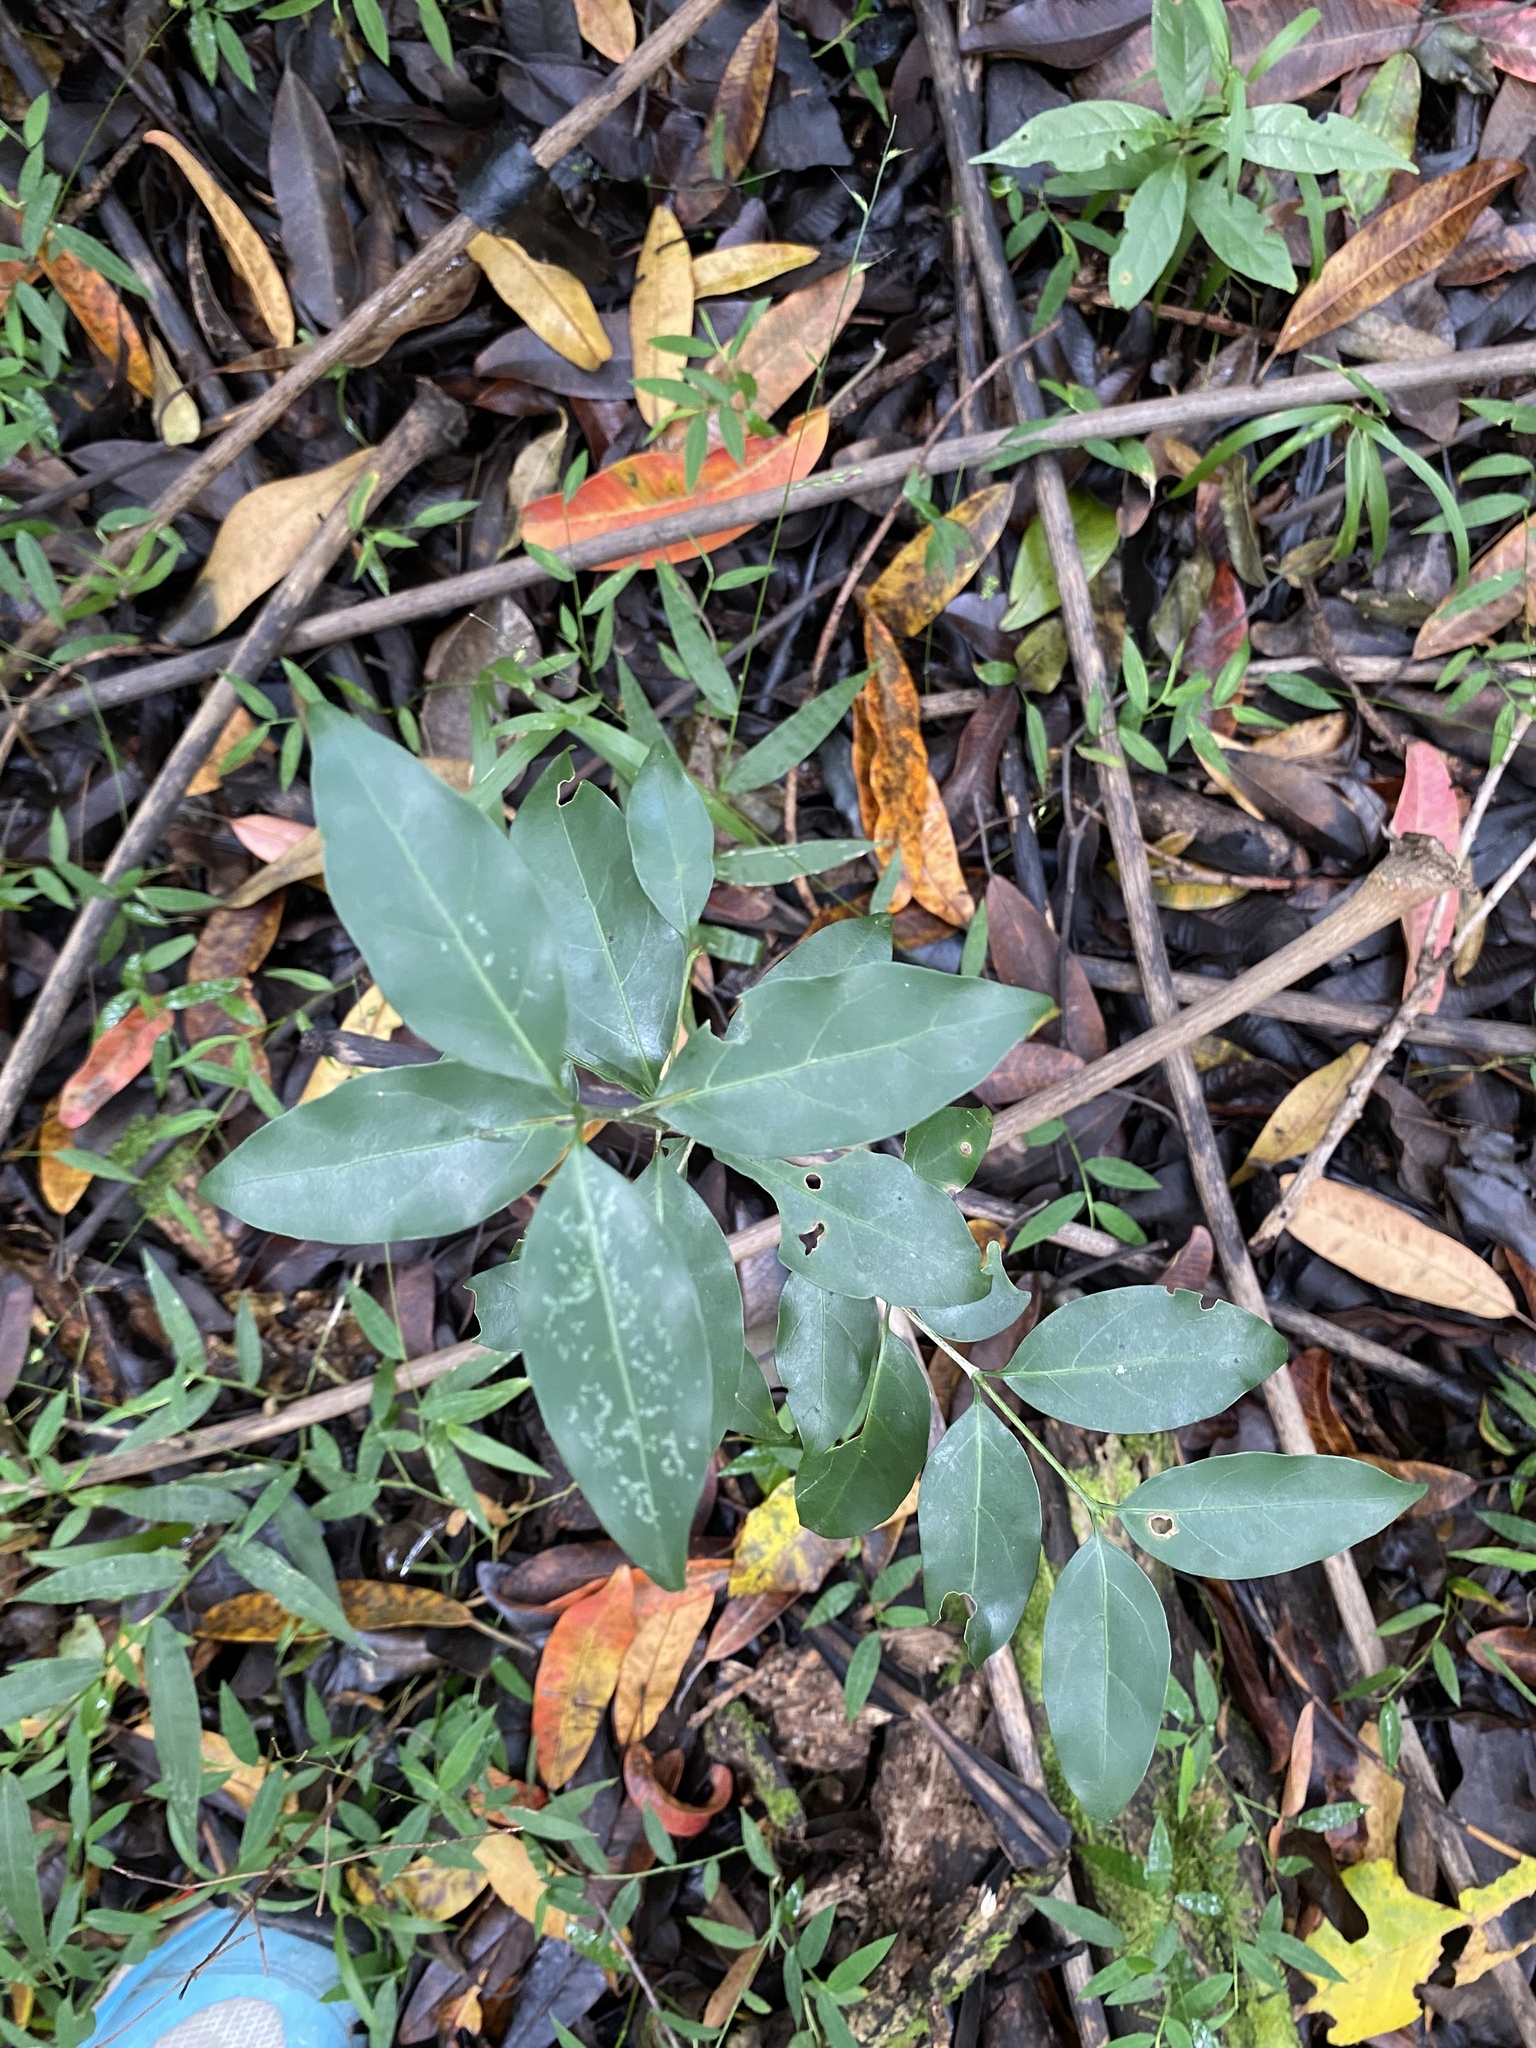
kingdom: Plantae
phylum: Tracheophyta
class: Magnoliopsida
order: Gentianales
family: Rubiaceae
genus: Canthium
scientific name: Canthium inerme
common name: Unarmed turkey-berry
